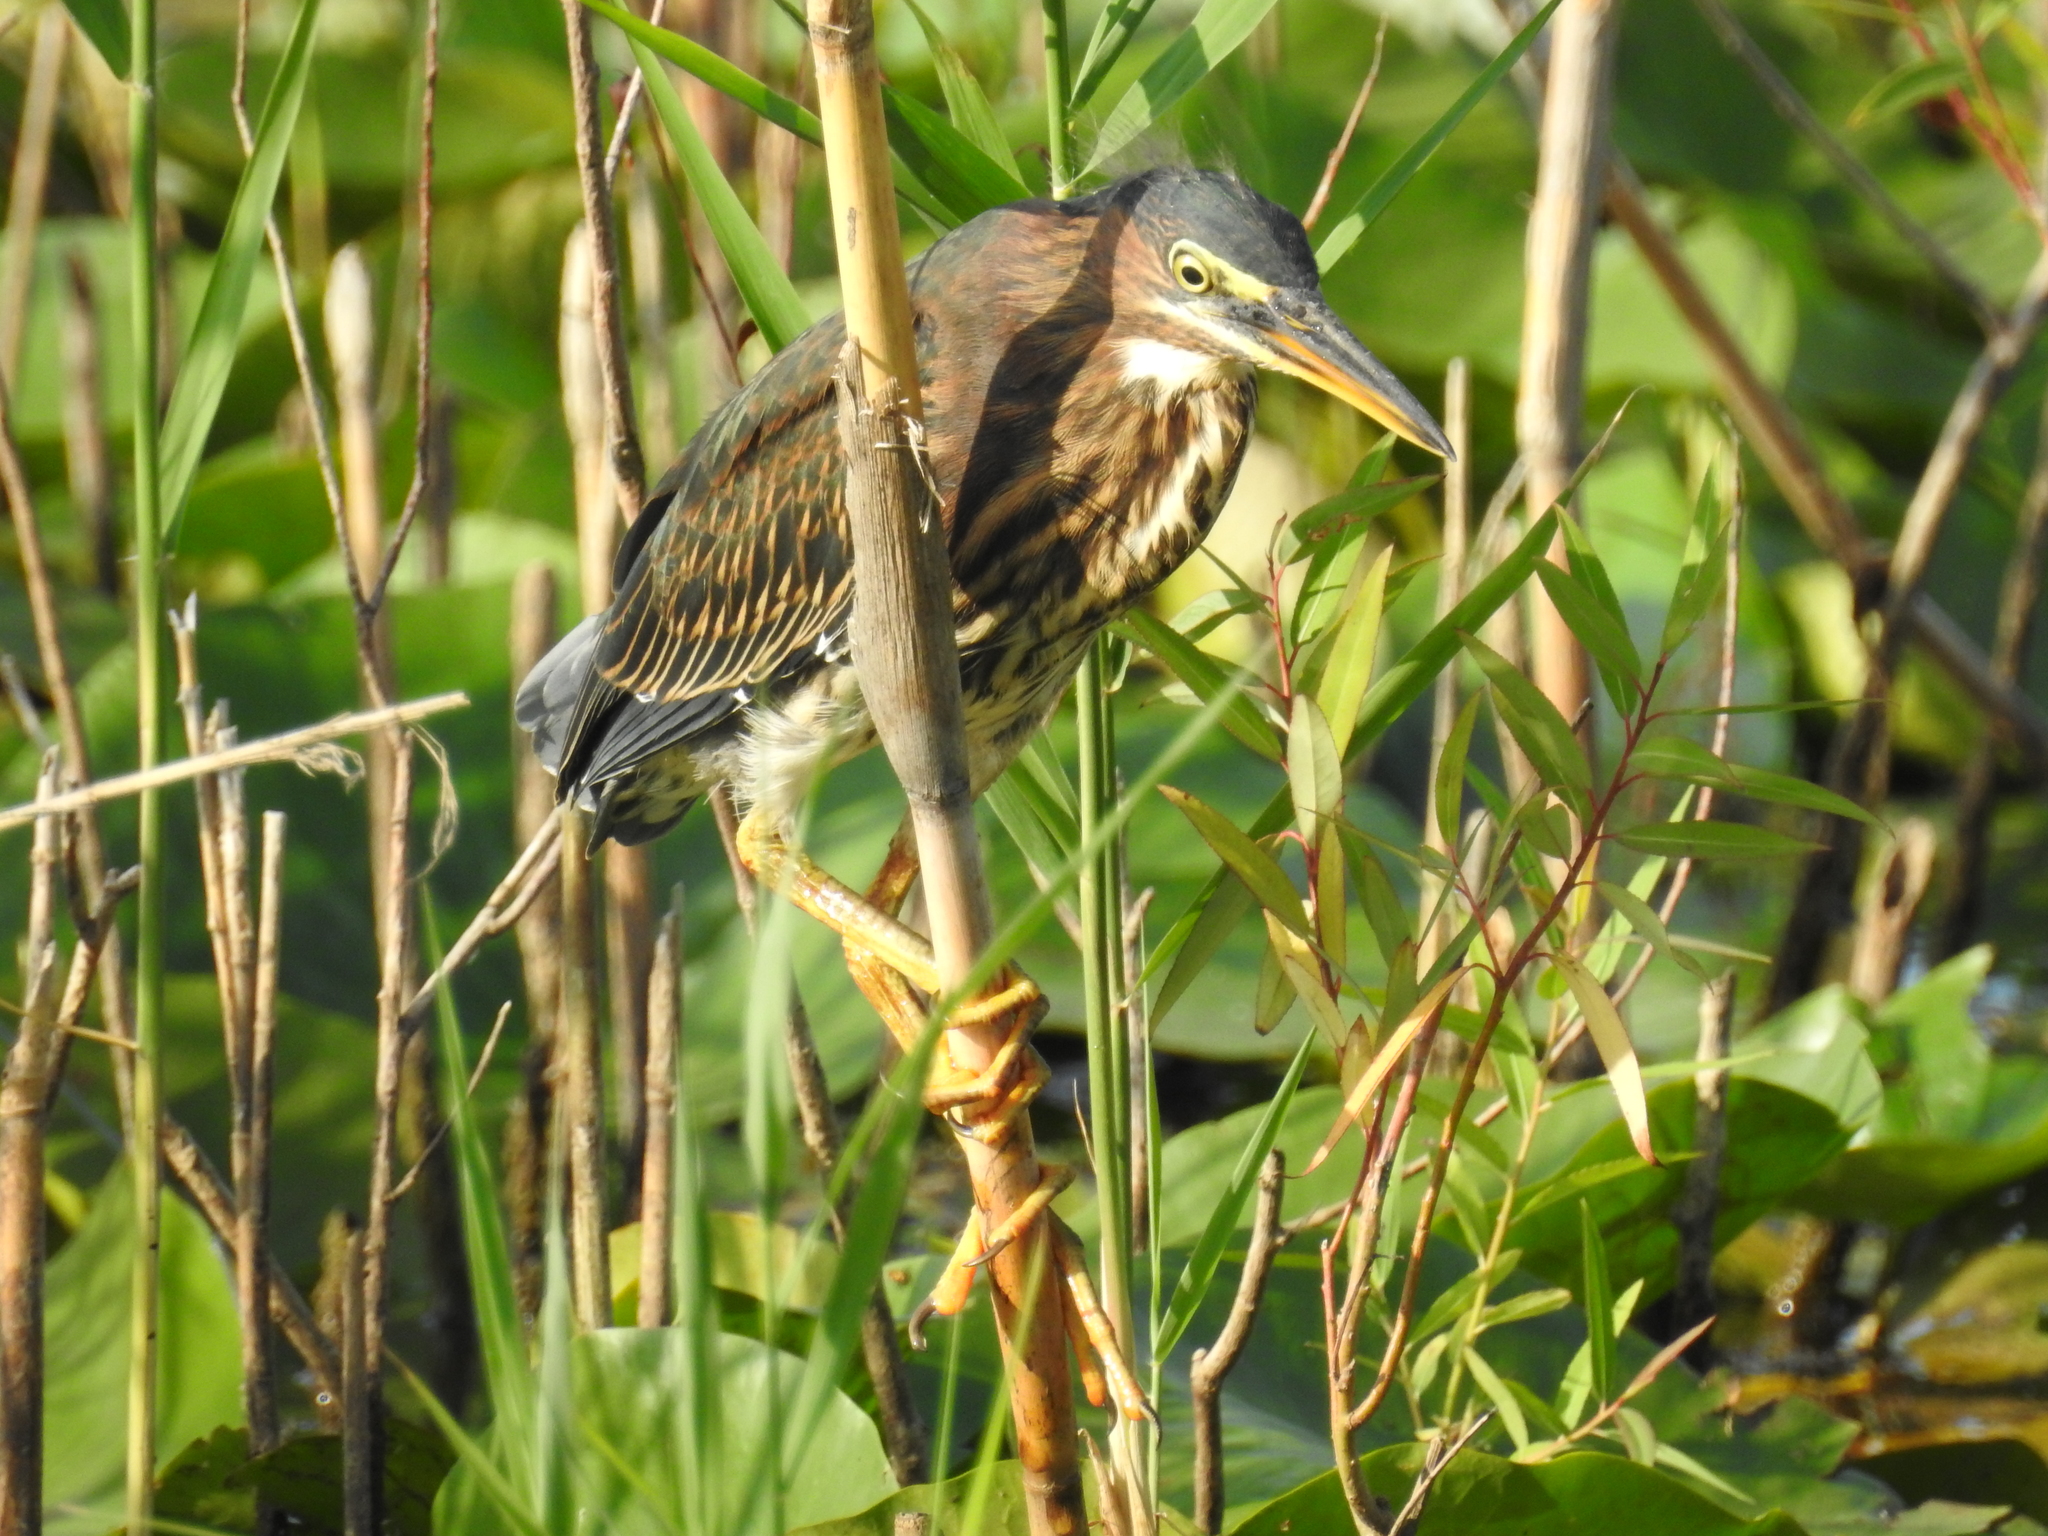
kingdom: Animalia
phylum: Chordata
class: Aves
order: Pelecaniformes
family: Ardeidae
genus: Butorides
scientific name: Butorides virescens
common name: Green heron
